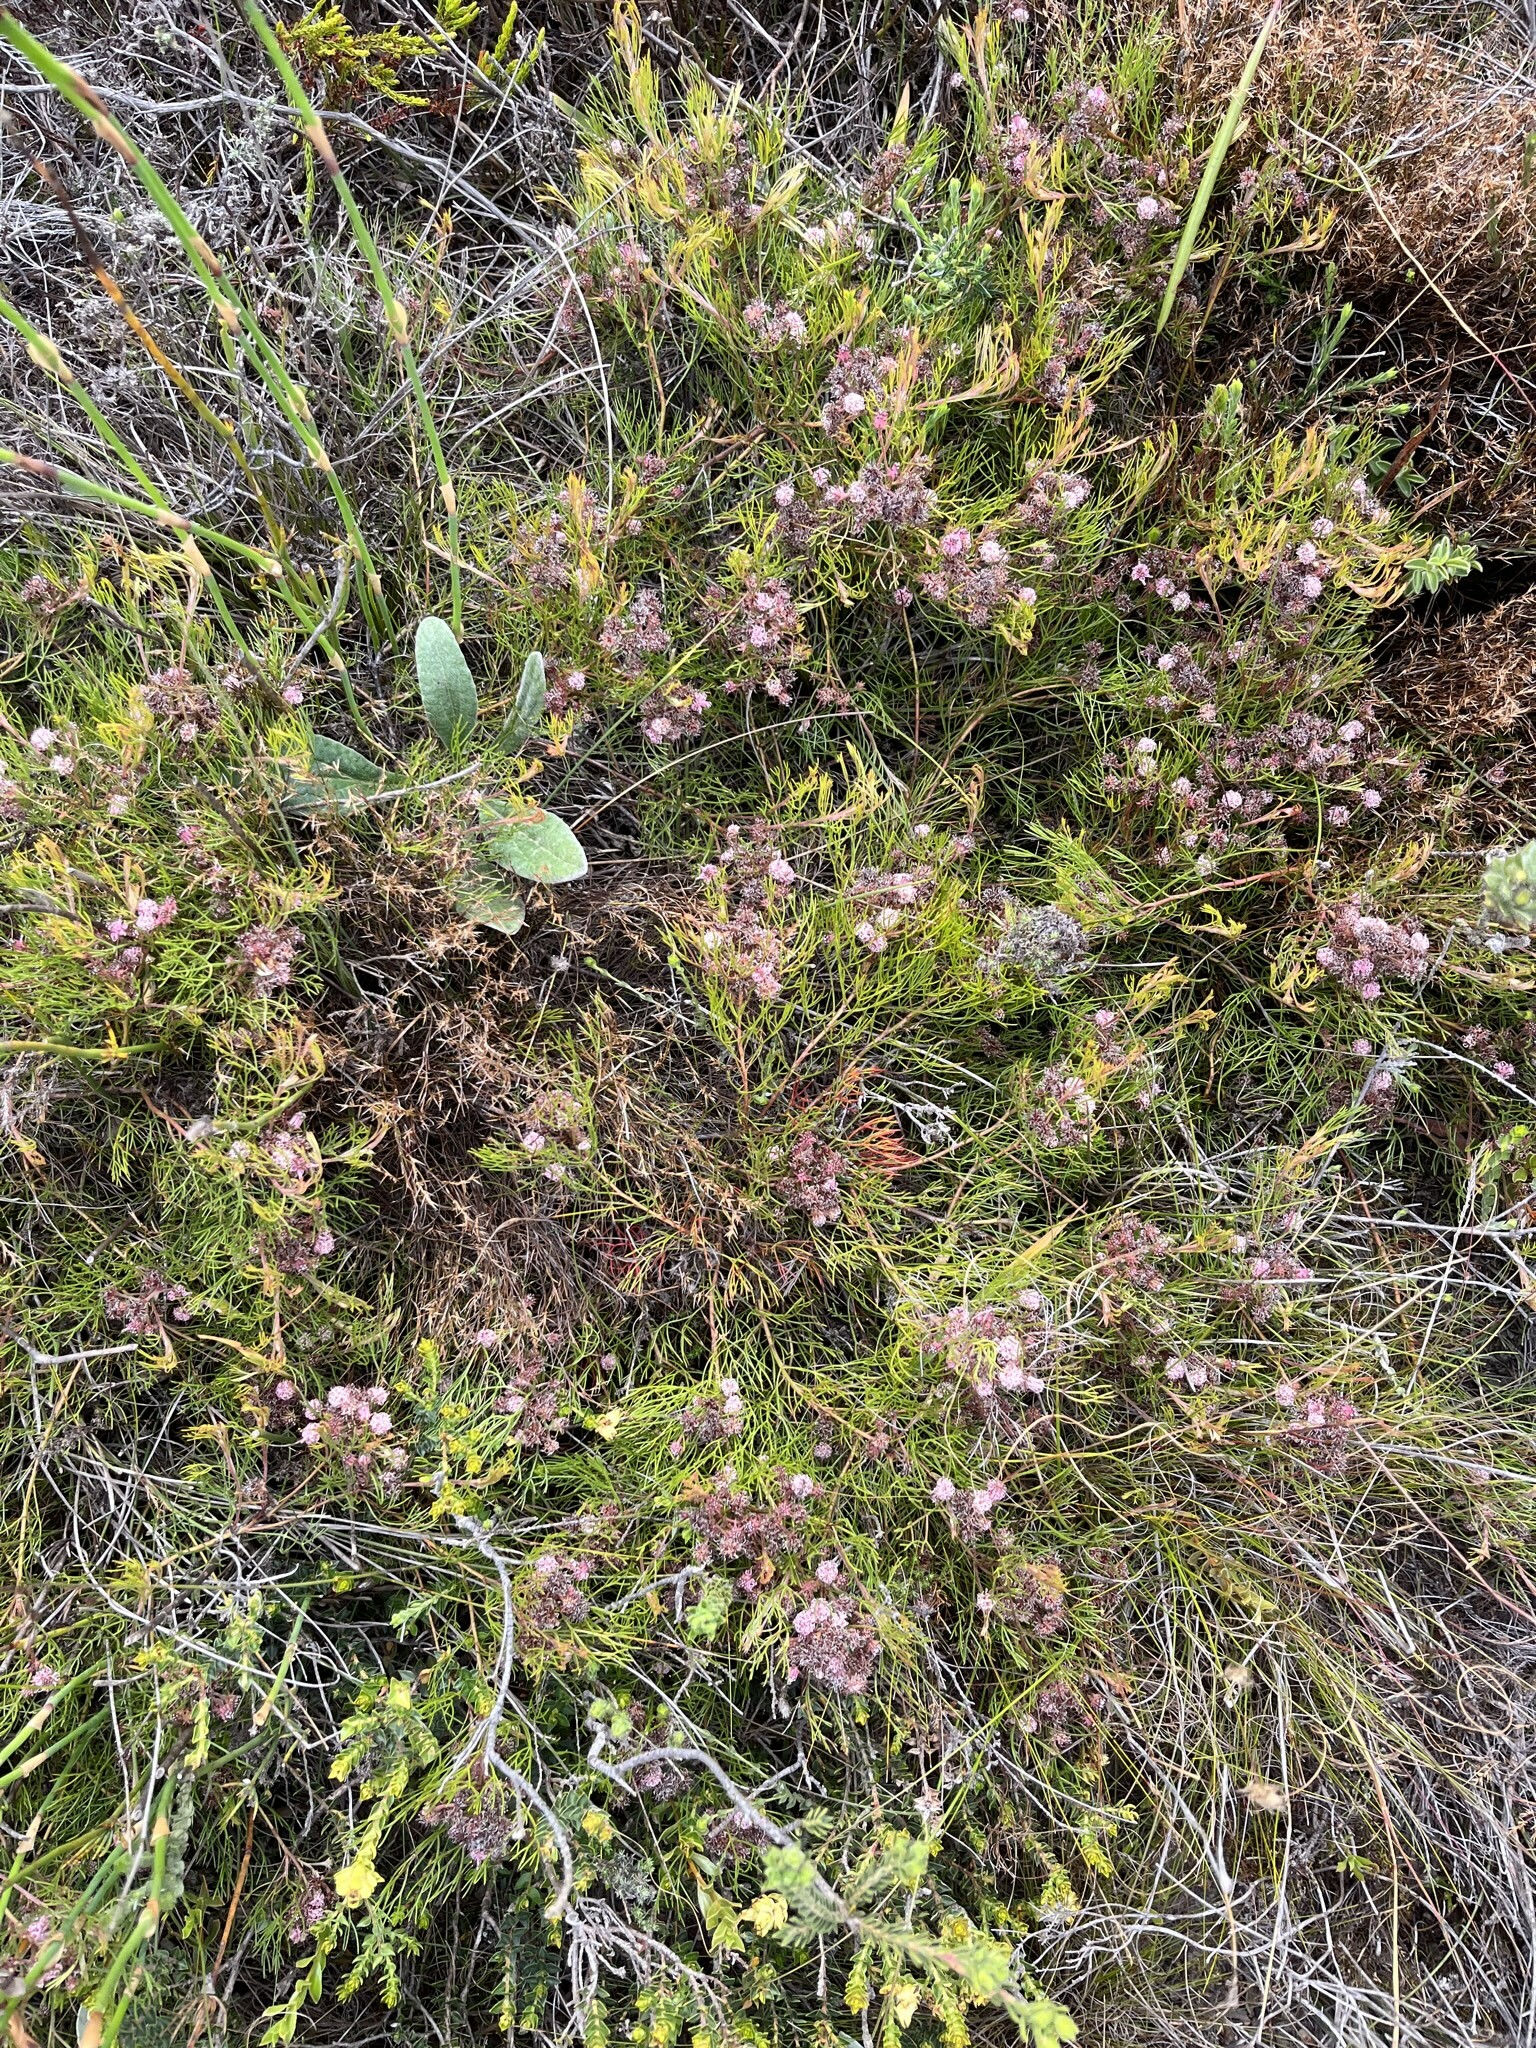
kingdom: Plantae
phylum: Tracheophyta
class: Magnoliopsida
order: Proteales
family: Proteaceae
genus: Serruria
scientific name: Serruria fasciflora
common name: Common pin spiderhead
